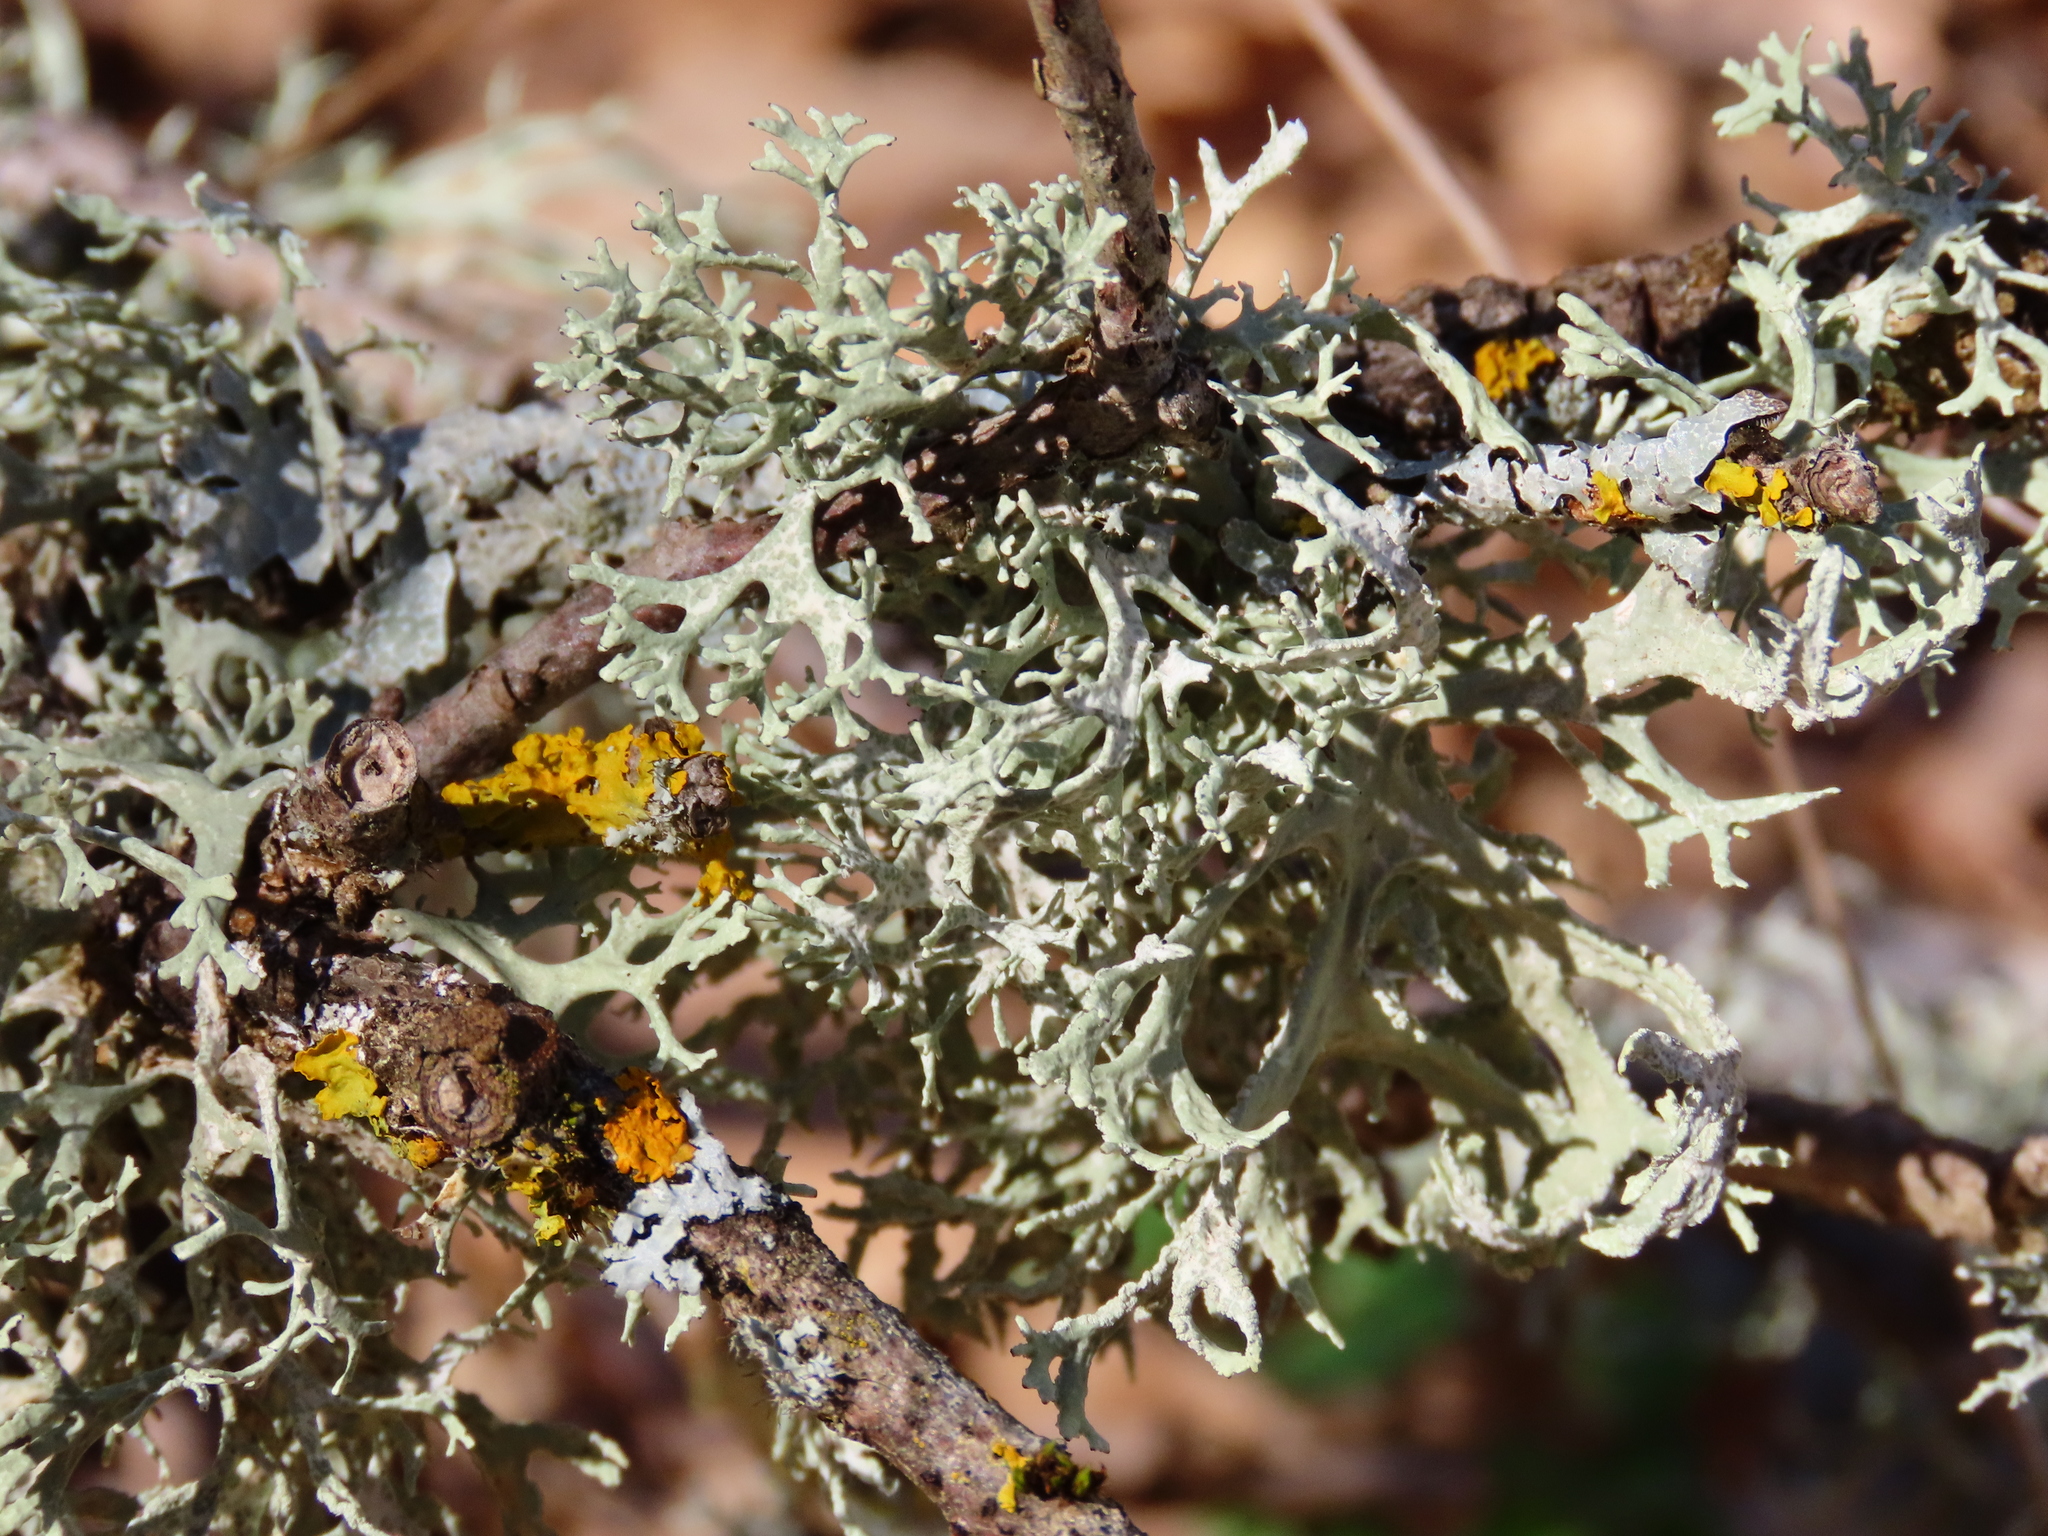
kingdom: Fungi
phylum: Ascomycota
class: Lecanoromycetes
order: Lecanorales
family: Parmeliaceae
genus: Evernia
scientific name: Evernia prunastri
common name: Oak moss
